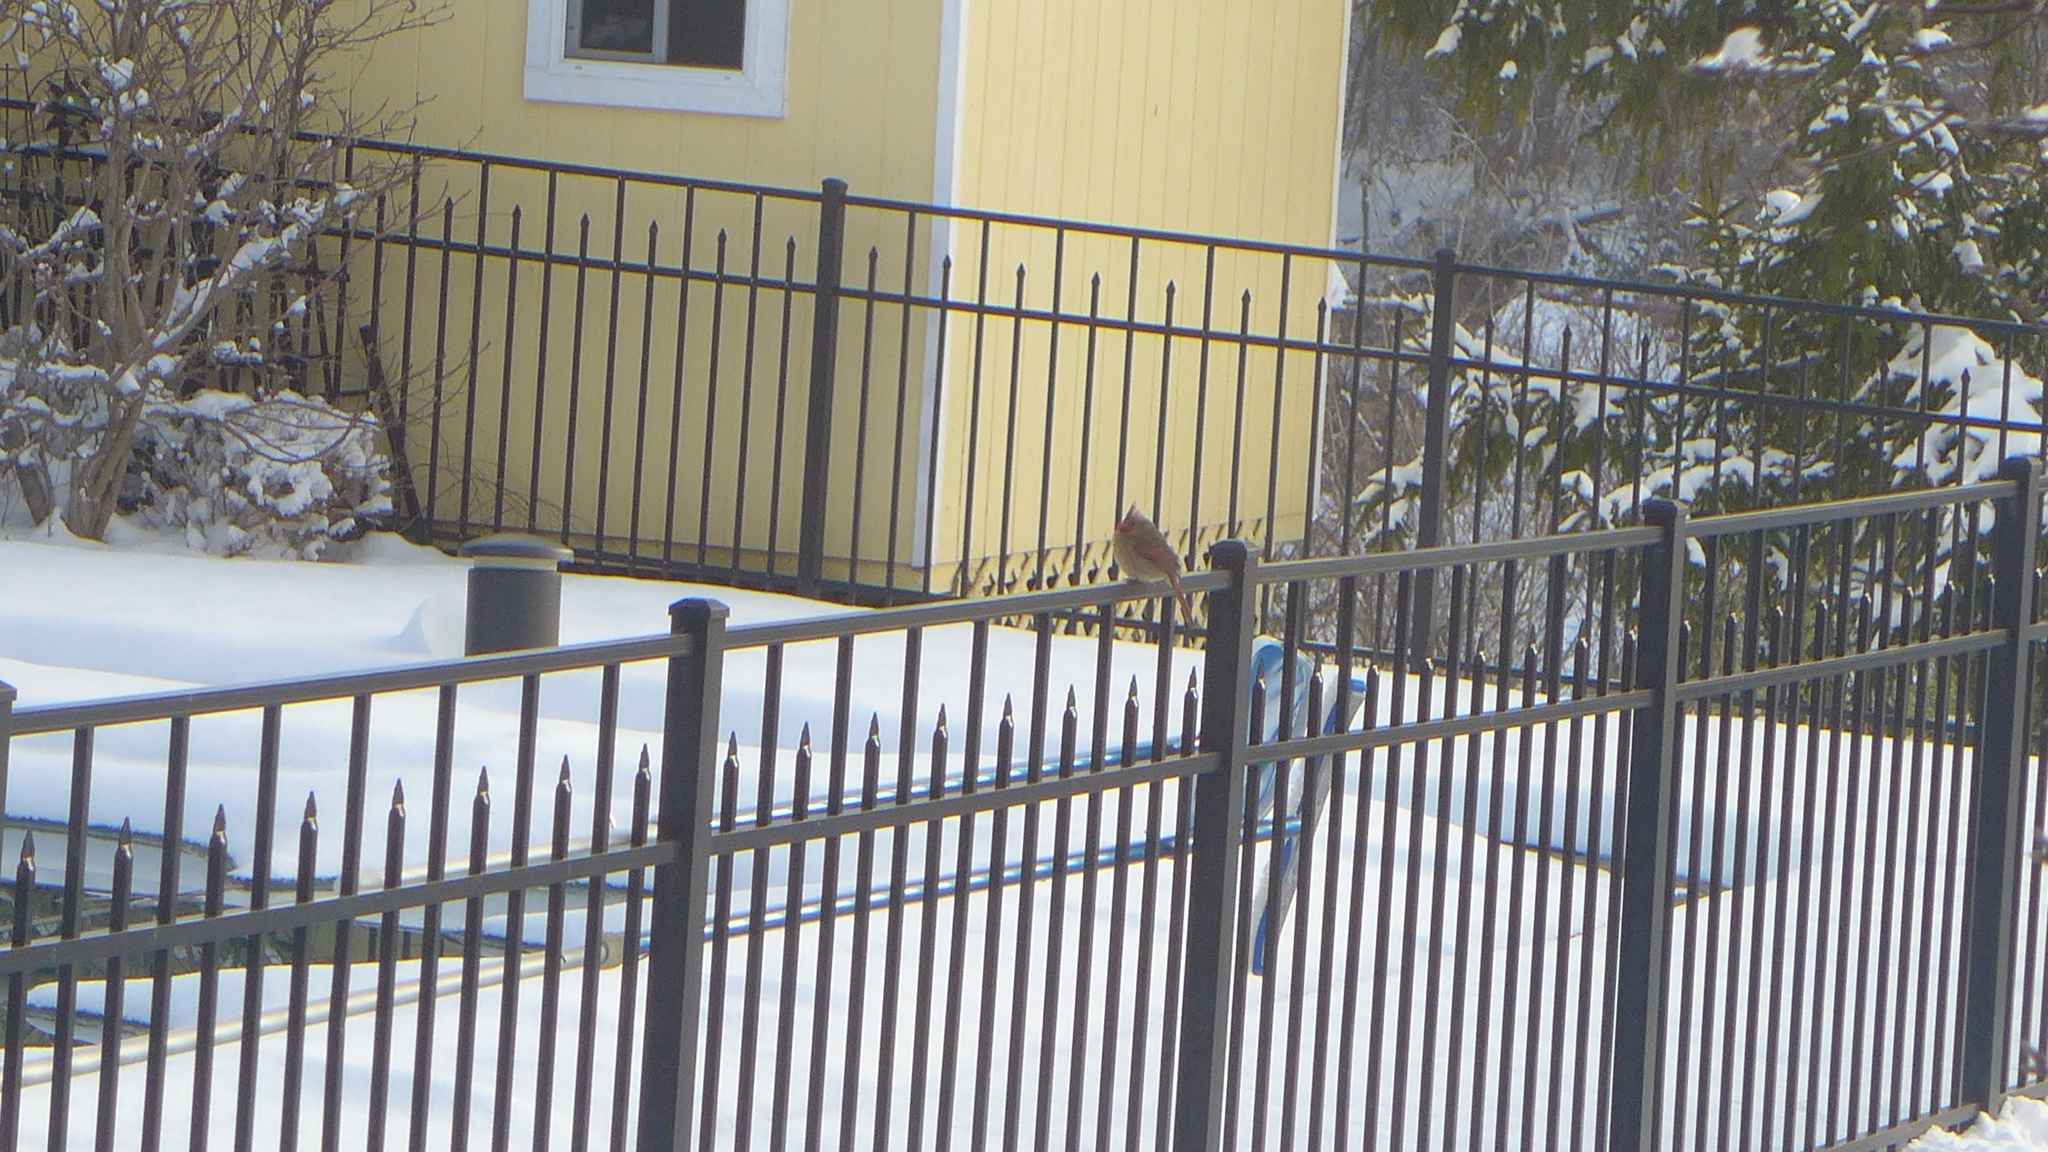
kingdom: Animalia
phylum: Chordata
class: Aves
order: Passeriformes
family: Cardinalidae
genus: Cardinalis
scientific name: Cardinalis cardinalis
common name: Northern cardinal
